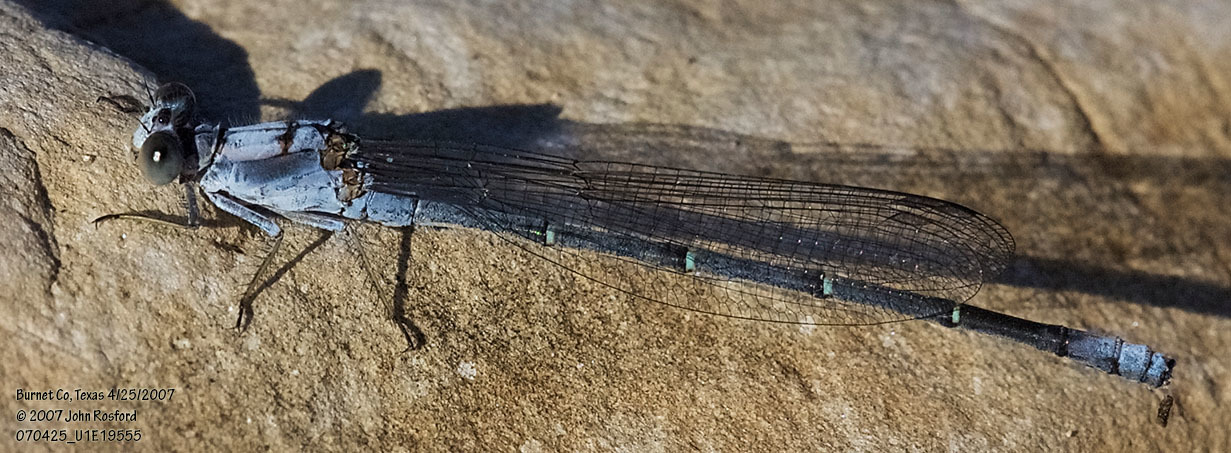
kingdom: Animalia
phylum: Arthropoda
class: Insecta
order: Odonata
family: Coenagrionidae
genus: Argia
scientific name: Argia moesta
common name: Powdered dancer
